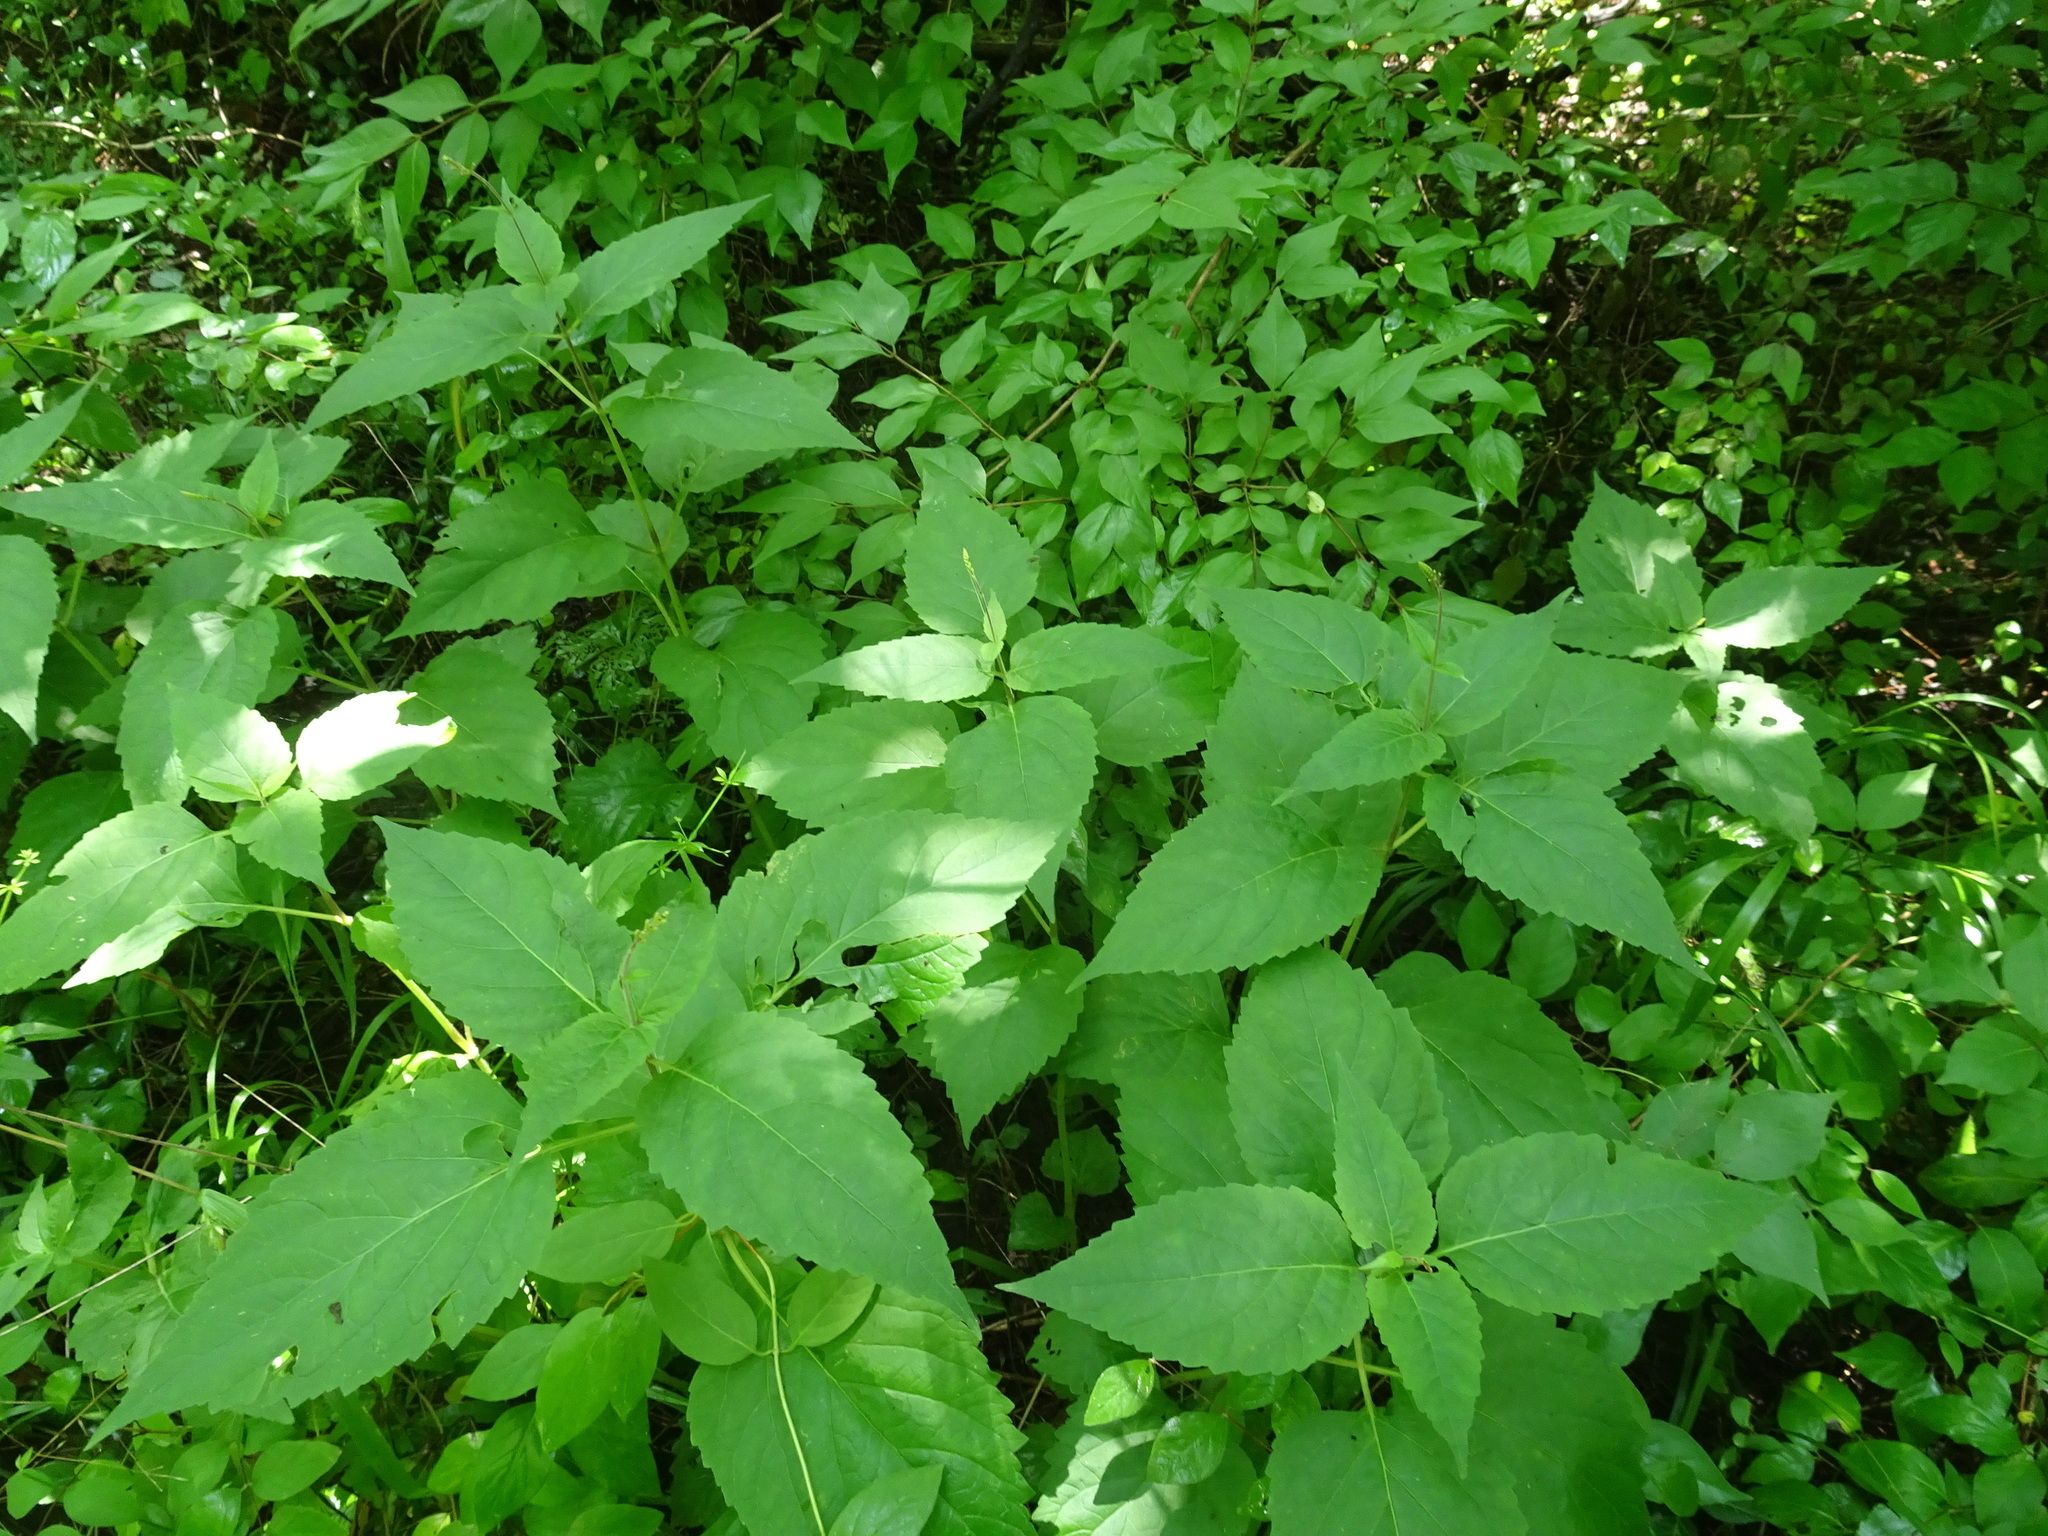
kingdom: Plantae
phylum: Tracheophyta
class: Magnoliopsida
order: Lamiales
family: Phrymaceae
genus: Phryma
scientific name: Phryma leptostachya
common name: American lopseed
